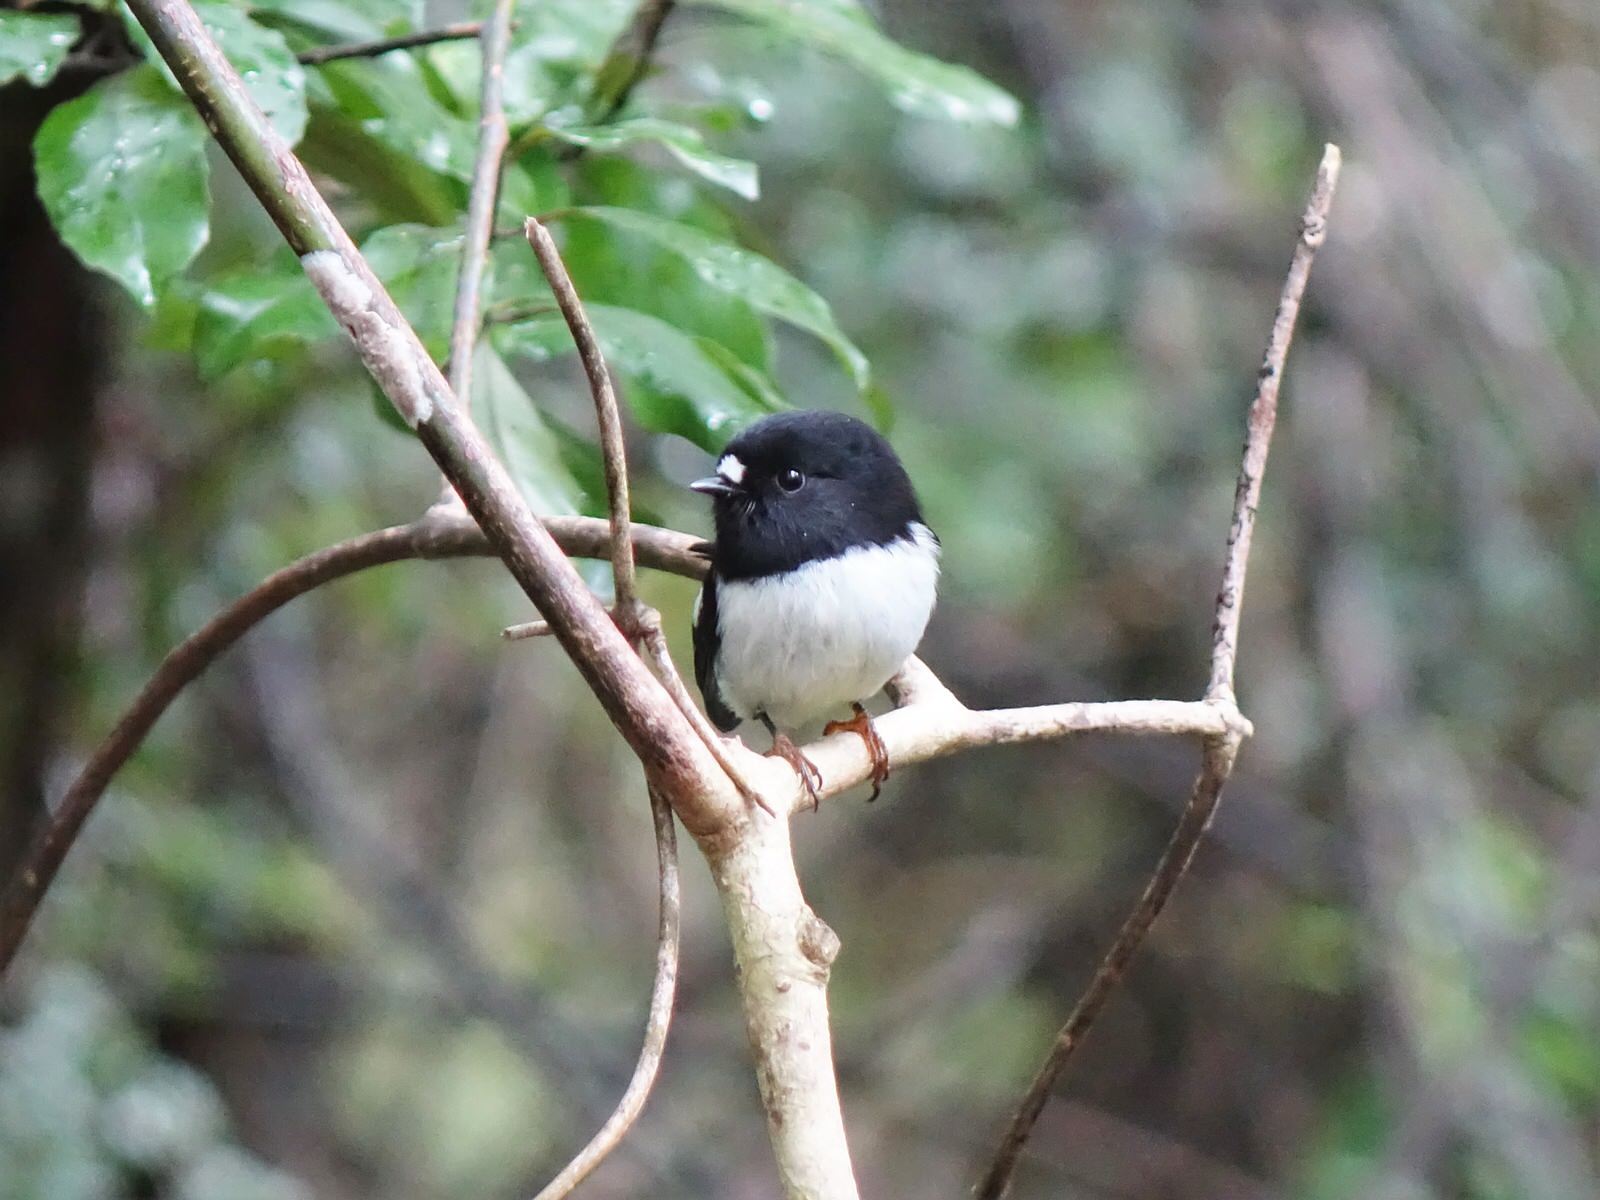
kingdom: Animalia
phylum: Chordata
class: Aves
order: Passeriformes
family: Petroicidae
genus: Petroica
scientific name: Petroica macrocephala
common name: Tomtit
